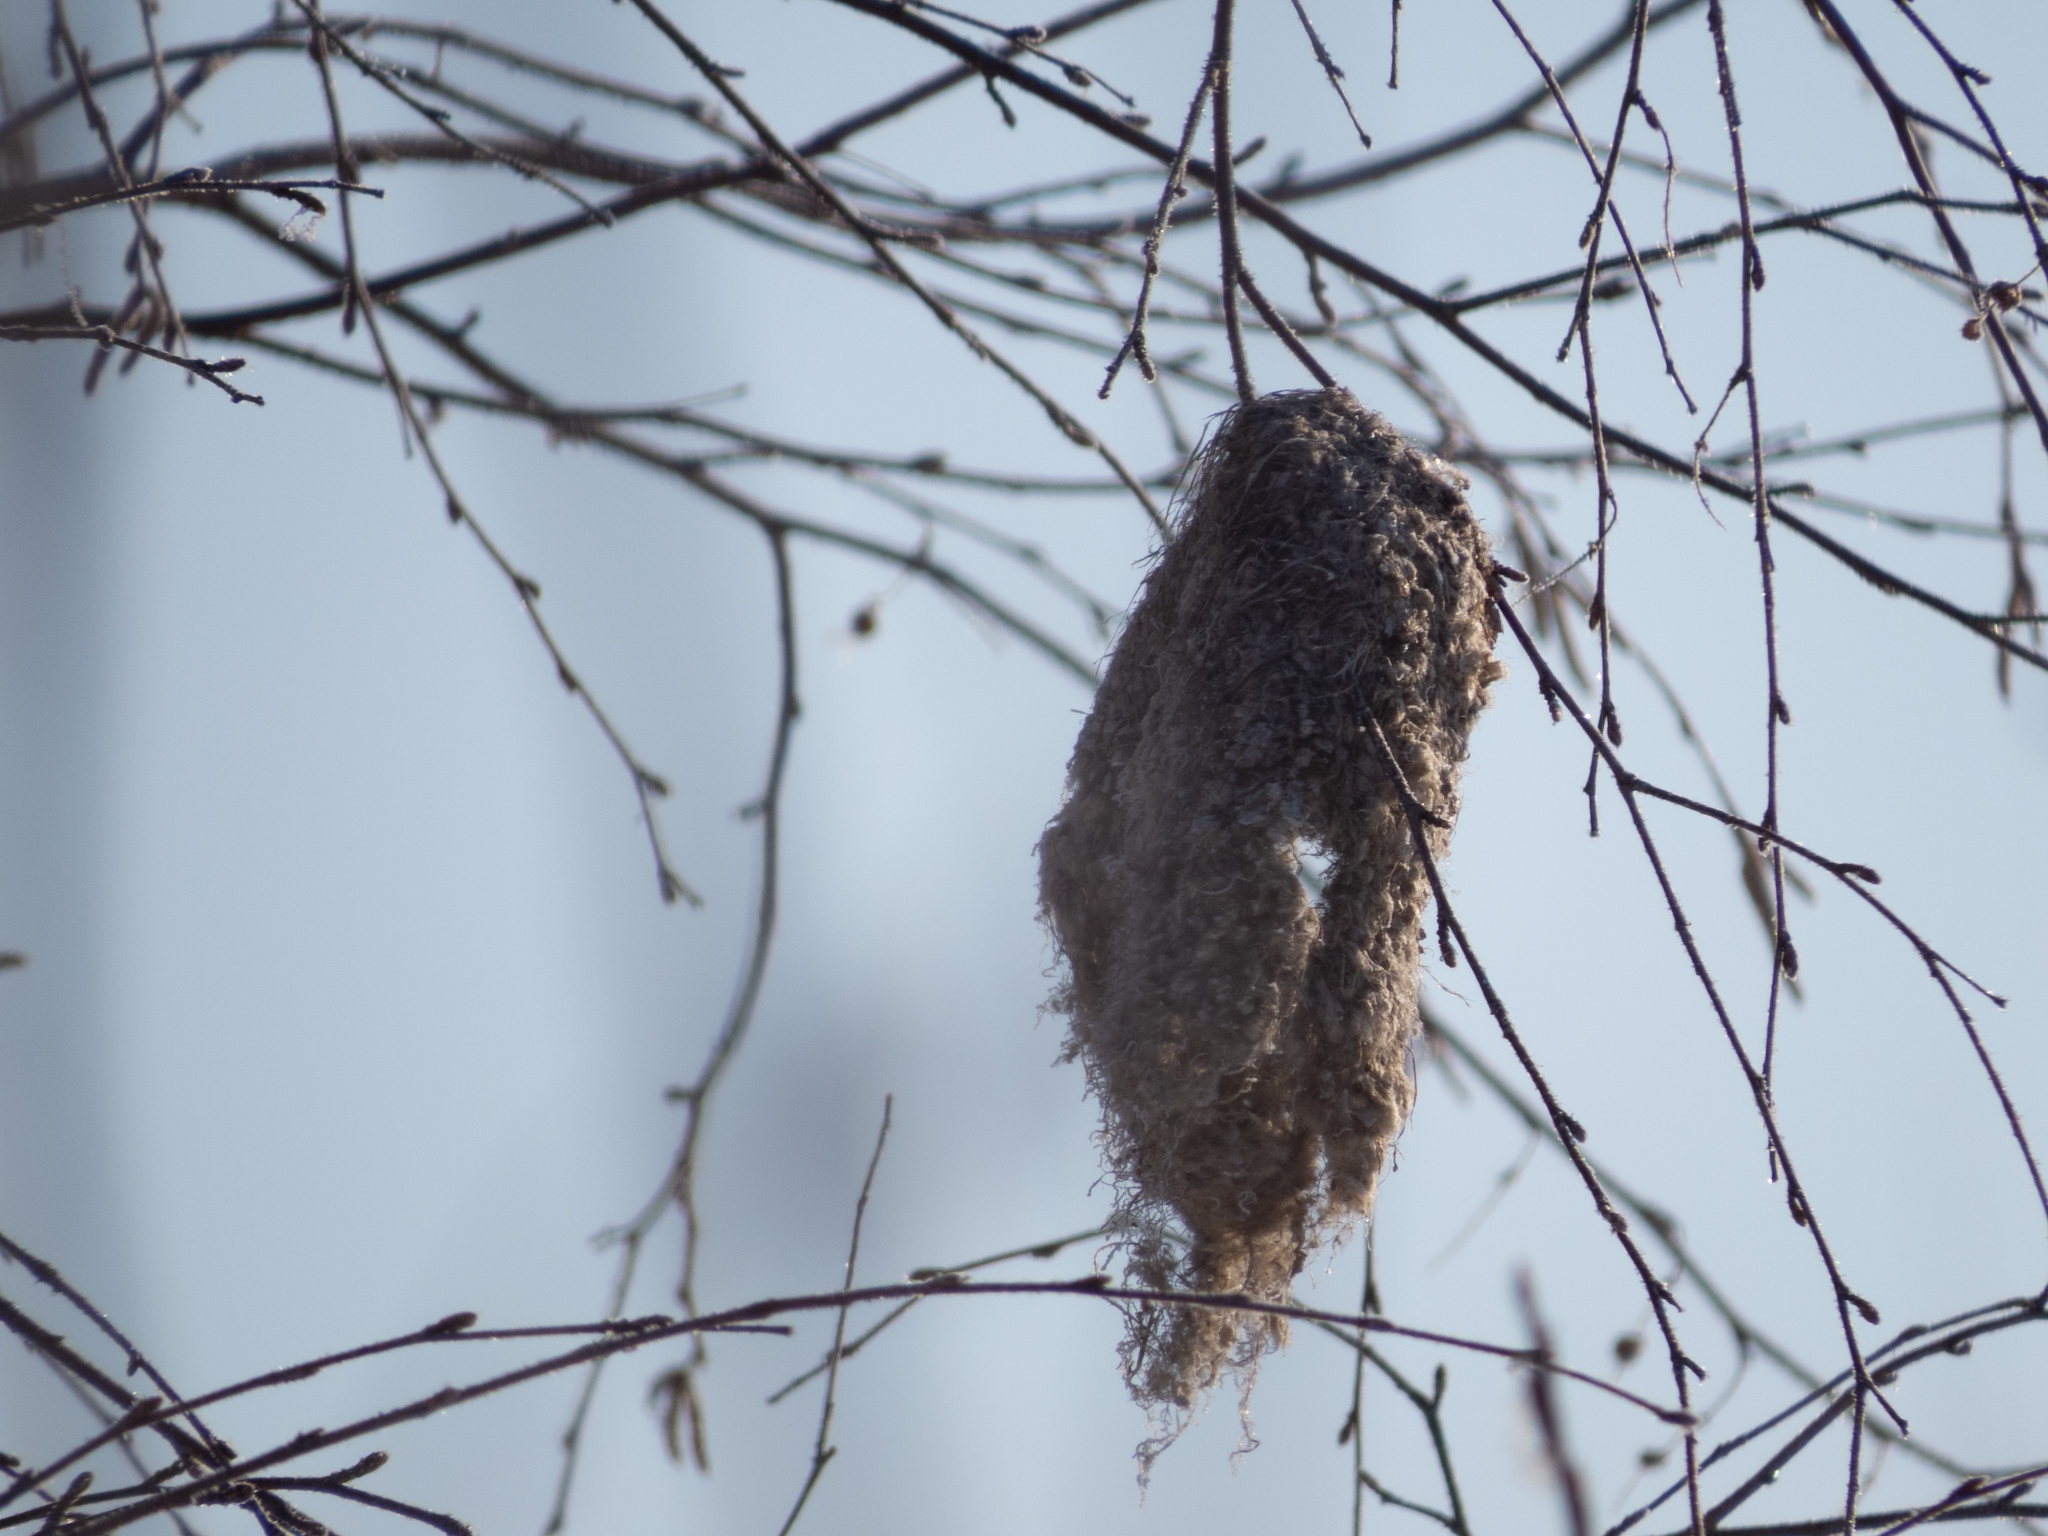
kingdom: Animalia
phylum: Chordata
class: Aves
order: Passeriformes
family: Remizidae
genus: Remiz
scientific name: Remiz pendulinus
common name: Eurasian penduline tit
